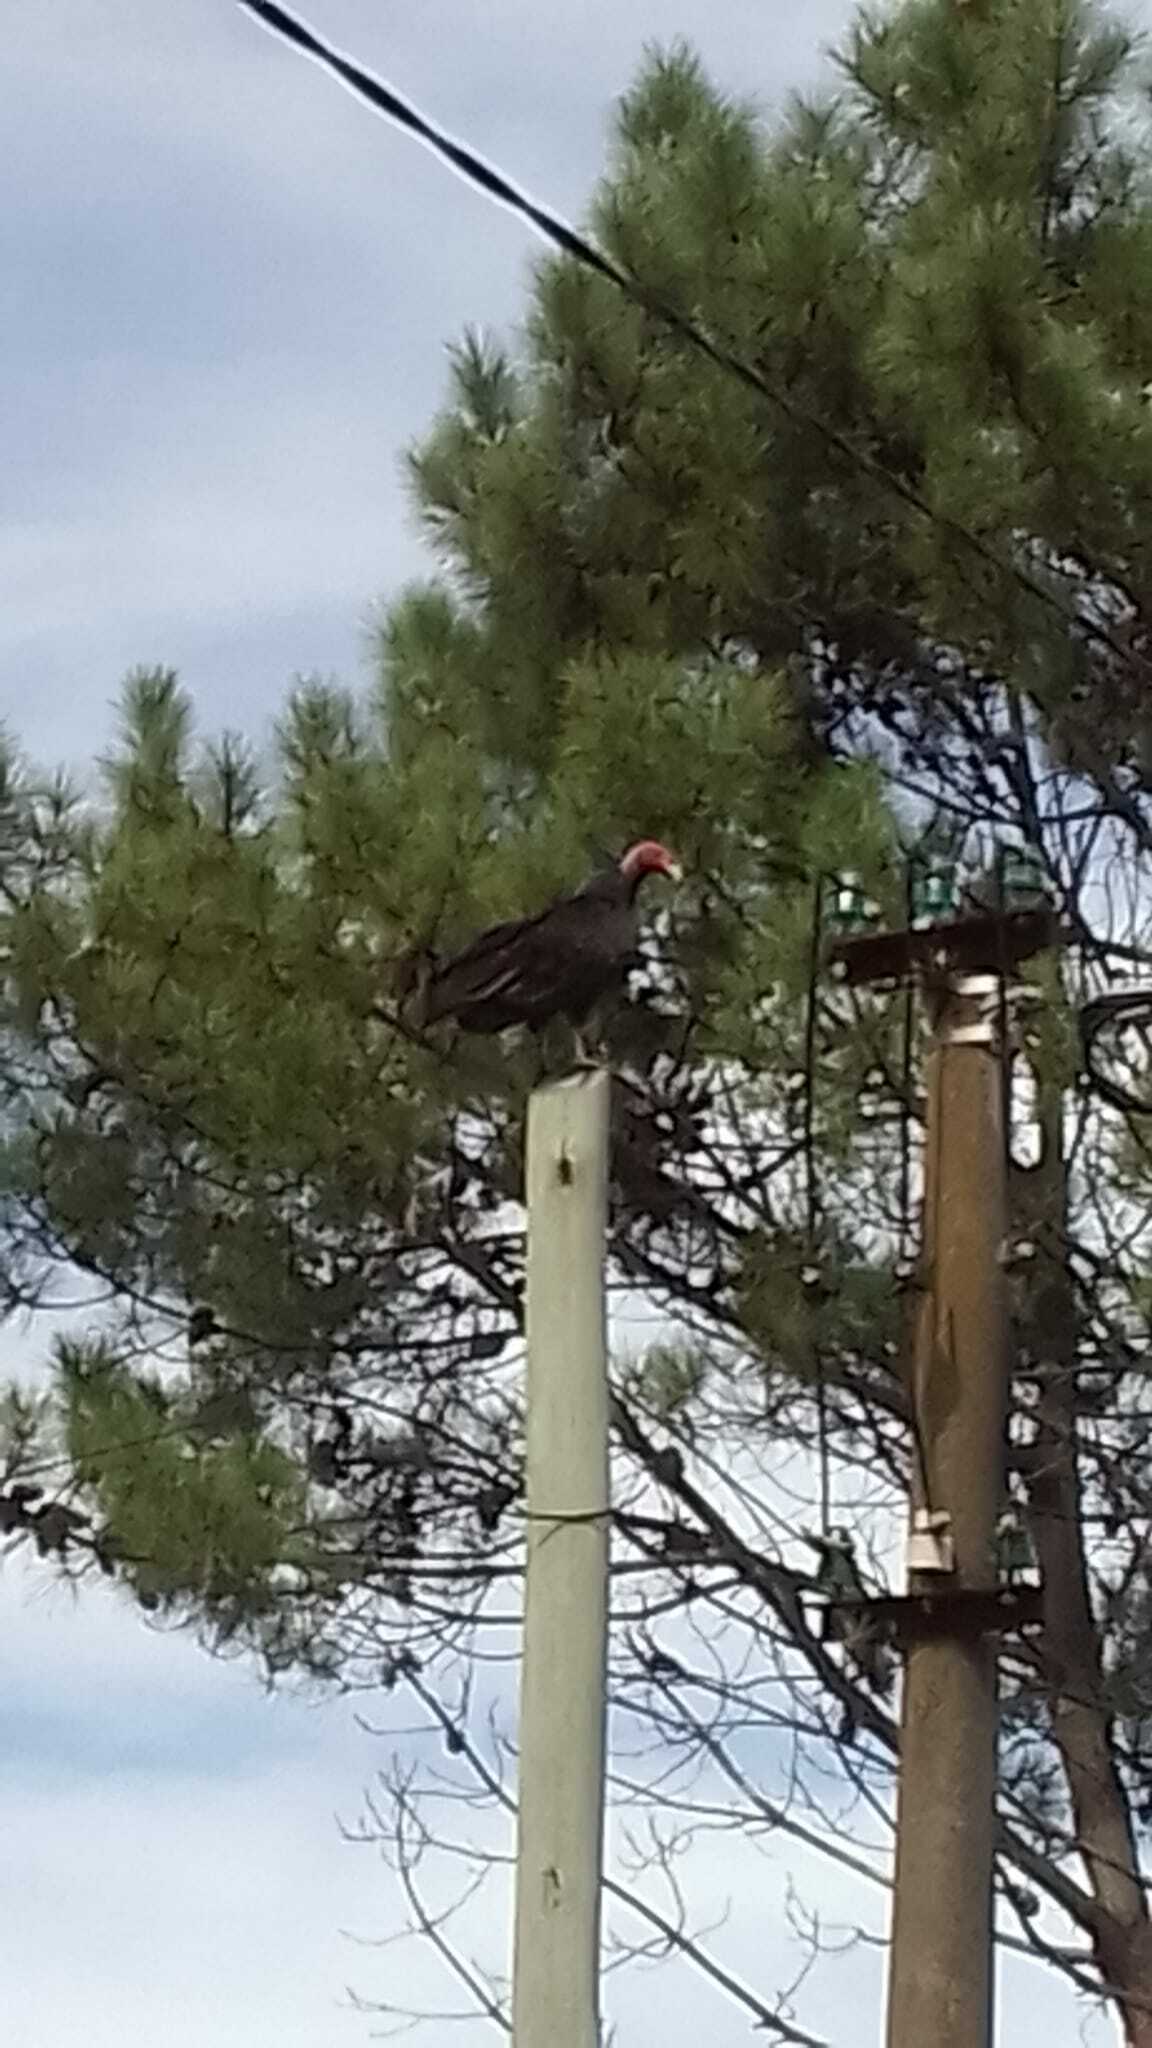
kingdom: Animalia
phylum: Chordata
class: Aves
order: Accipitriformes
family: Cathartidae
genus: Cathartes
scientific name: Cathartes aura
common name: Turkey vulture
